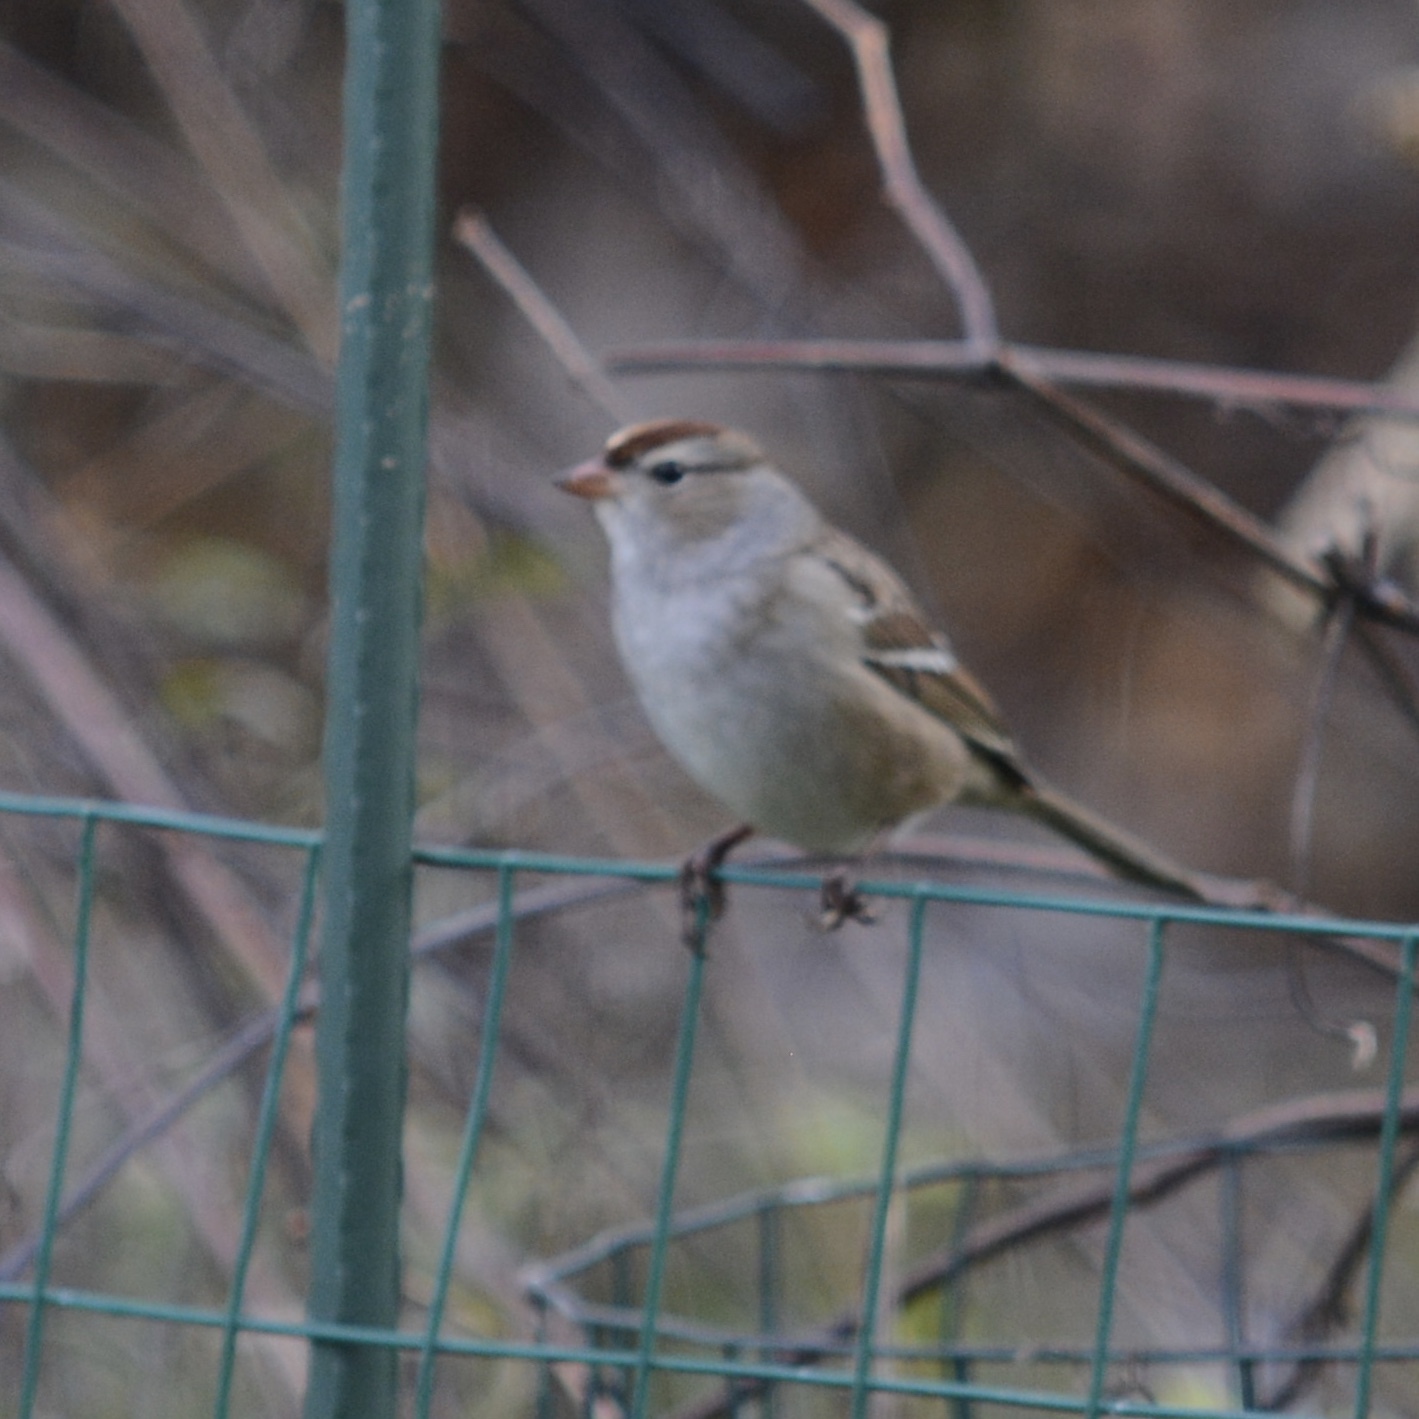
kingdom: Animalia
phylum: Chordata
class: Aves
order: Passeriformes
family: Passerellidae
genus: Zonotrichia
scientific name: Zonotrichia leucophrys
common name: White-crowned sparrow
